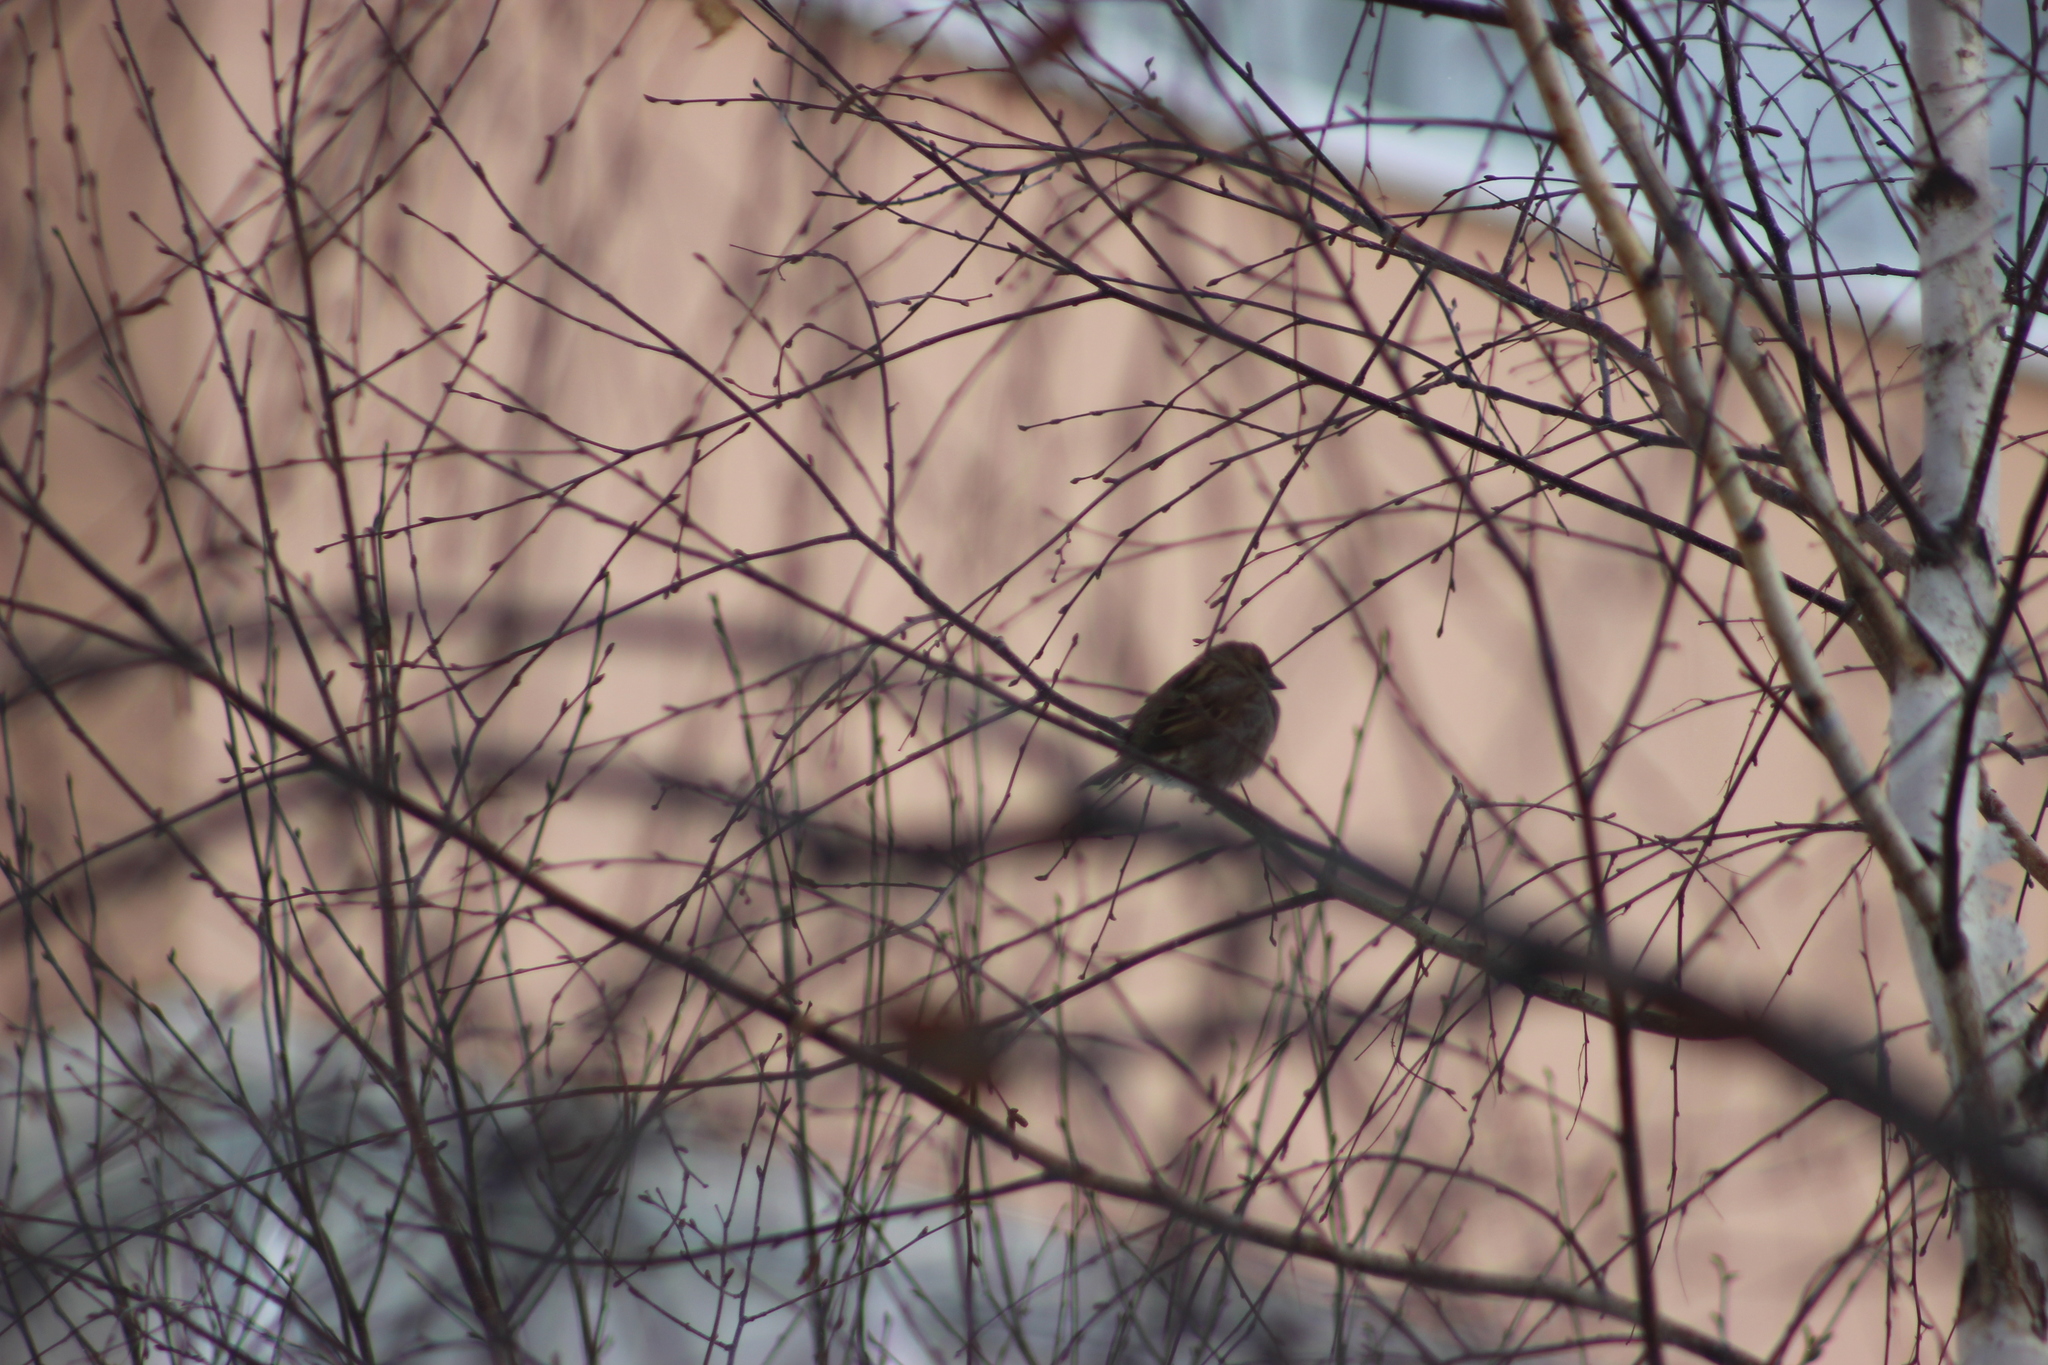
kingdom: Animalia
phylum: Chordata
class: Aves
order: Passeriformes
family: Passeridae
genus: Passer
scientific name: Passer domesticus
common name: House sparrow
